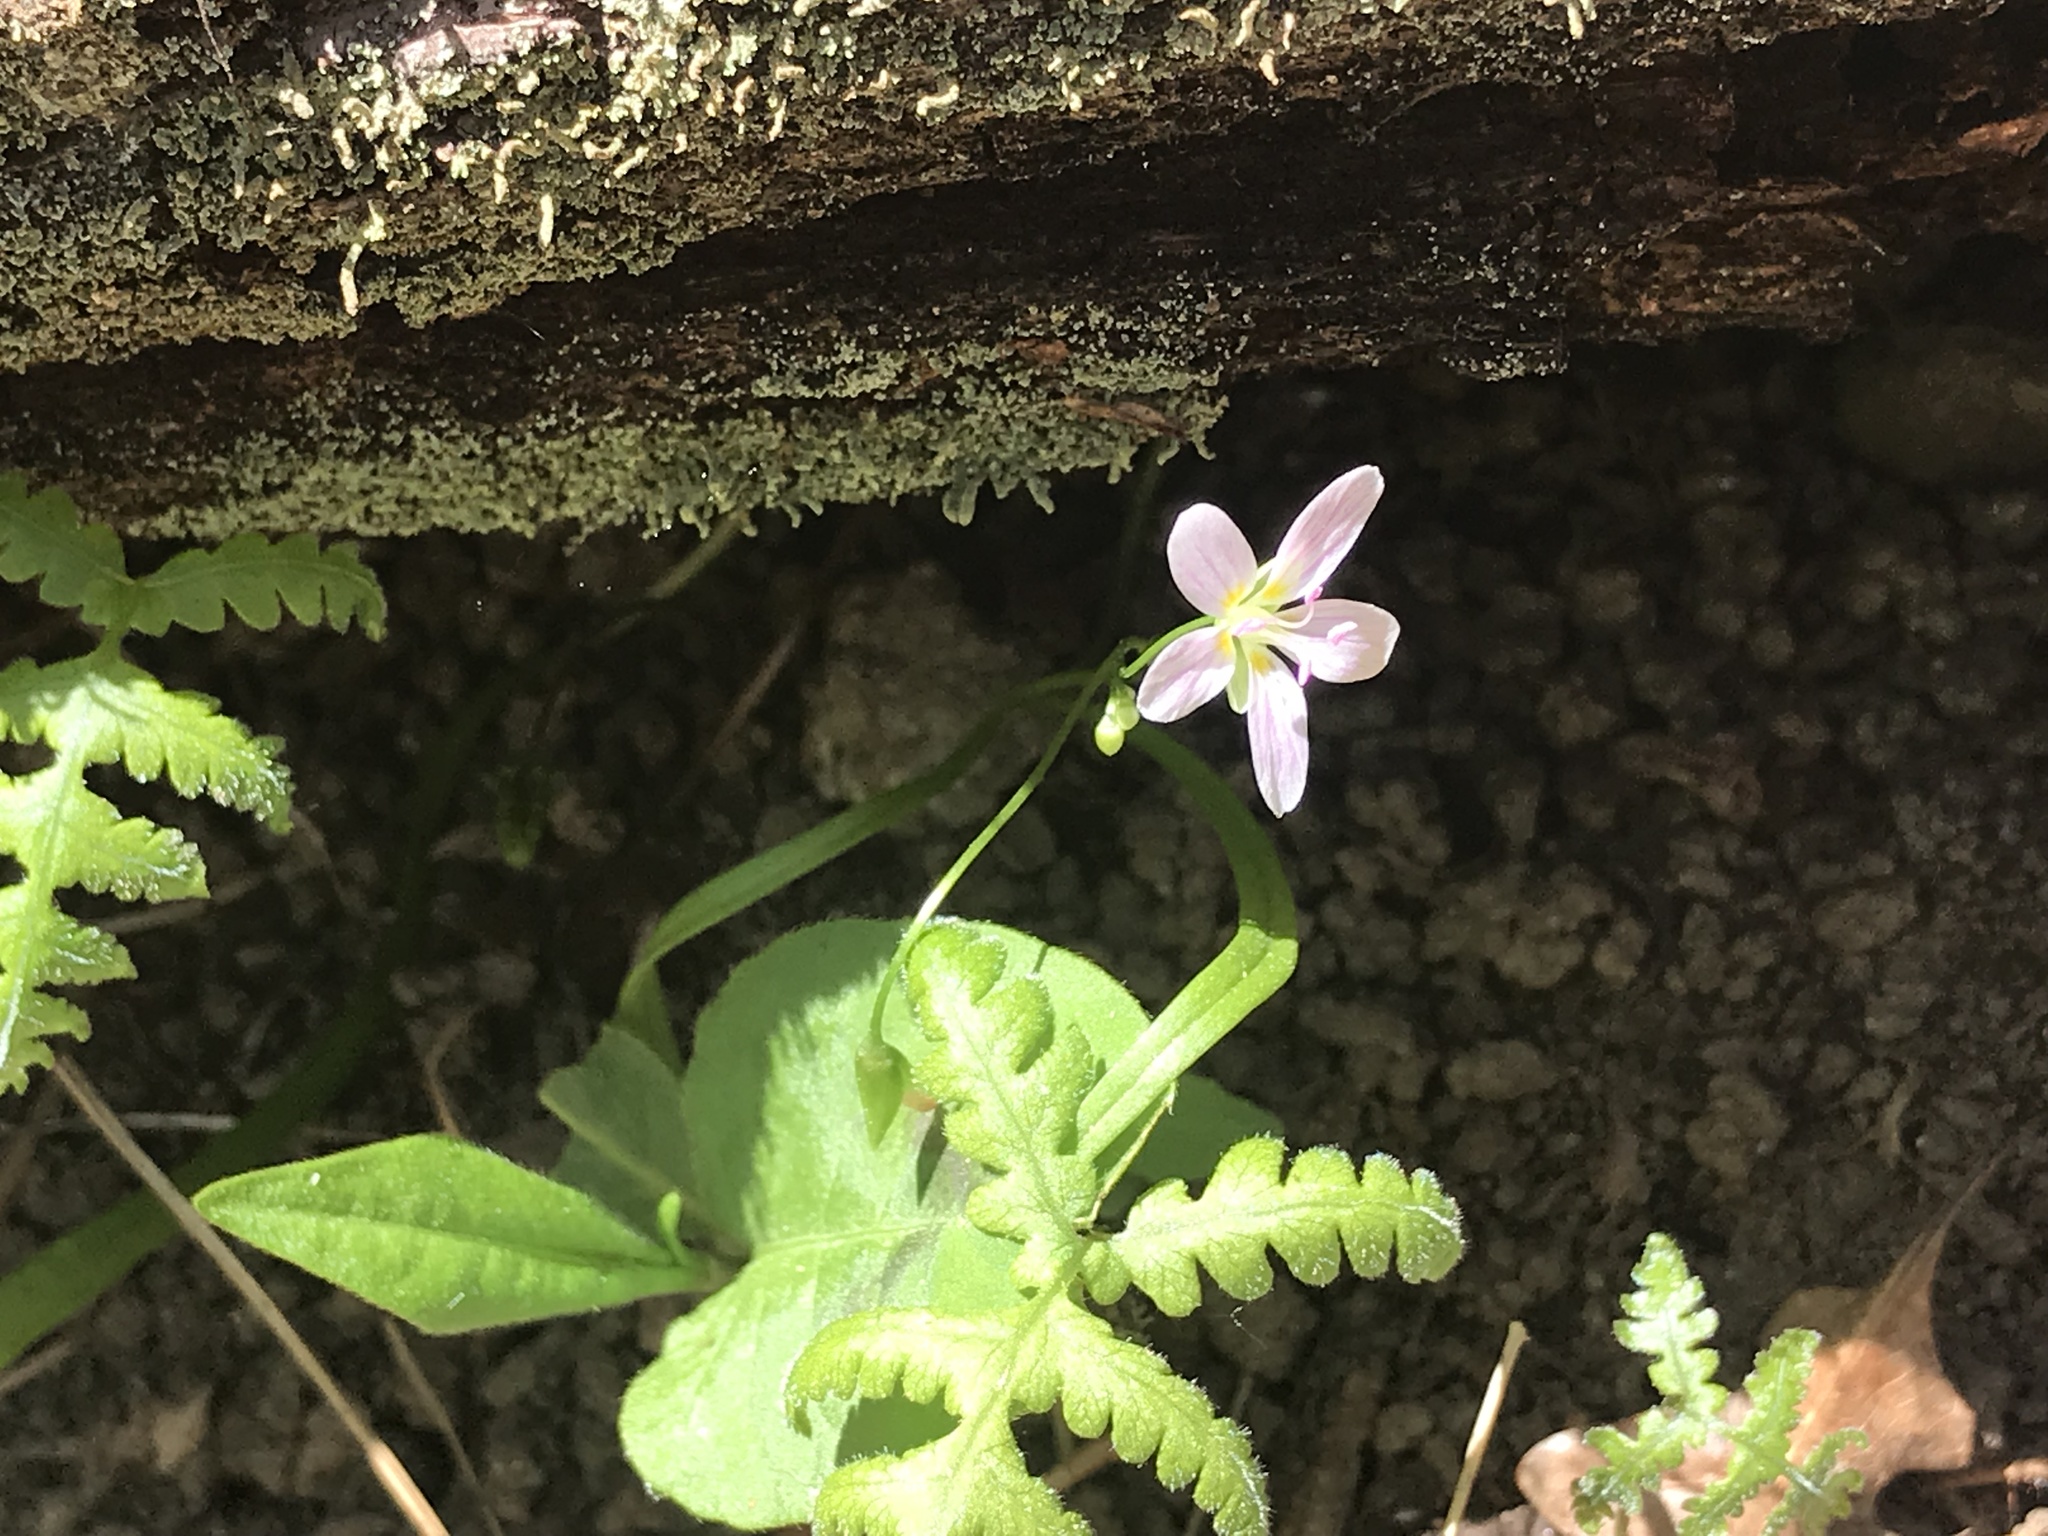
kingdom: Plantae
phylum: Tracheophyta
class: Magnoliopsida
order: Caryophyllales
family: Montiaceae
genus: Claytonia
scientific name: Claytonia virginica
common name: Virginia springbeauty
